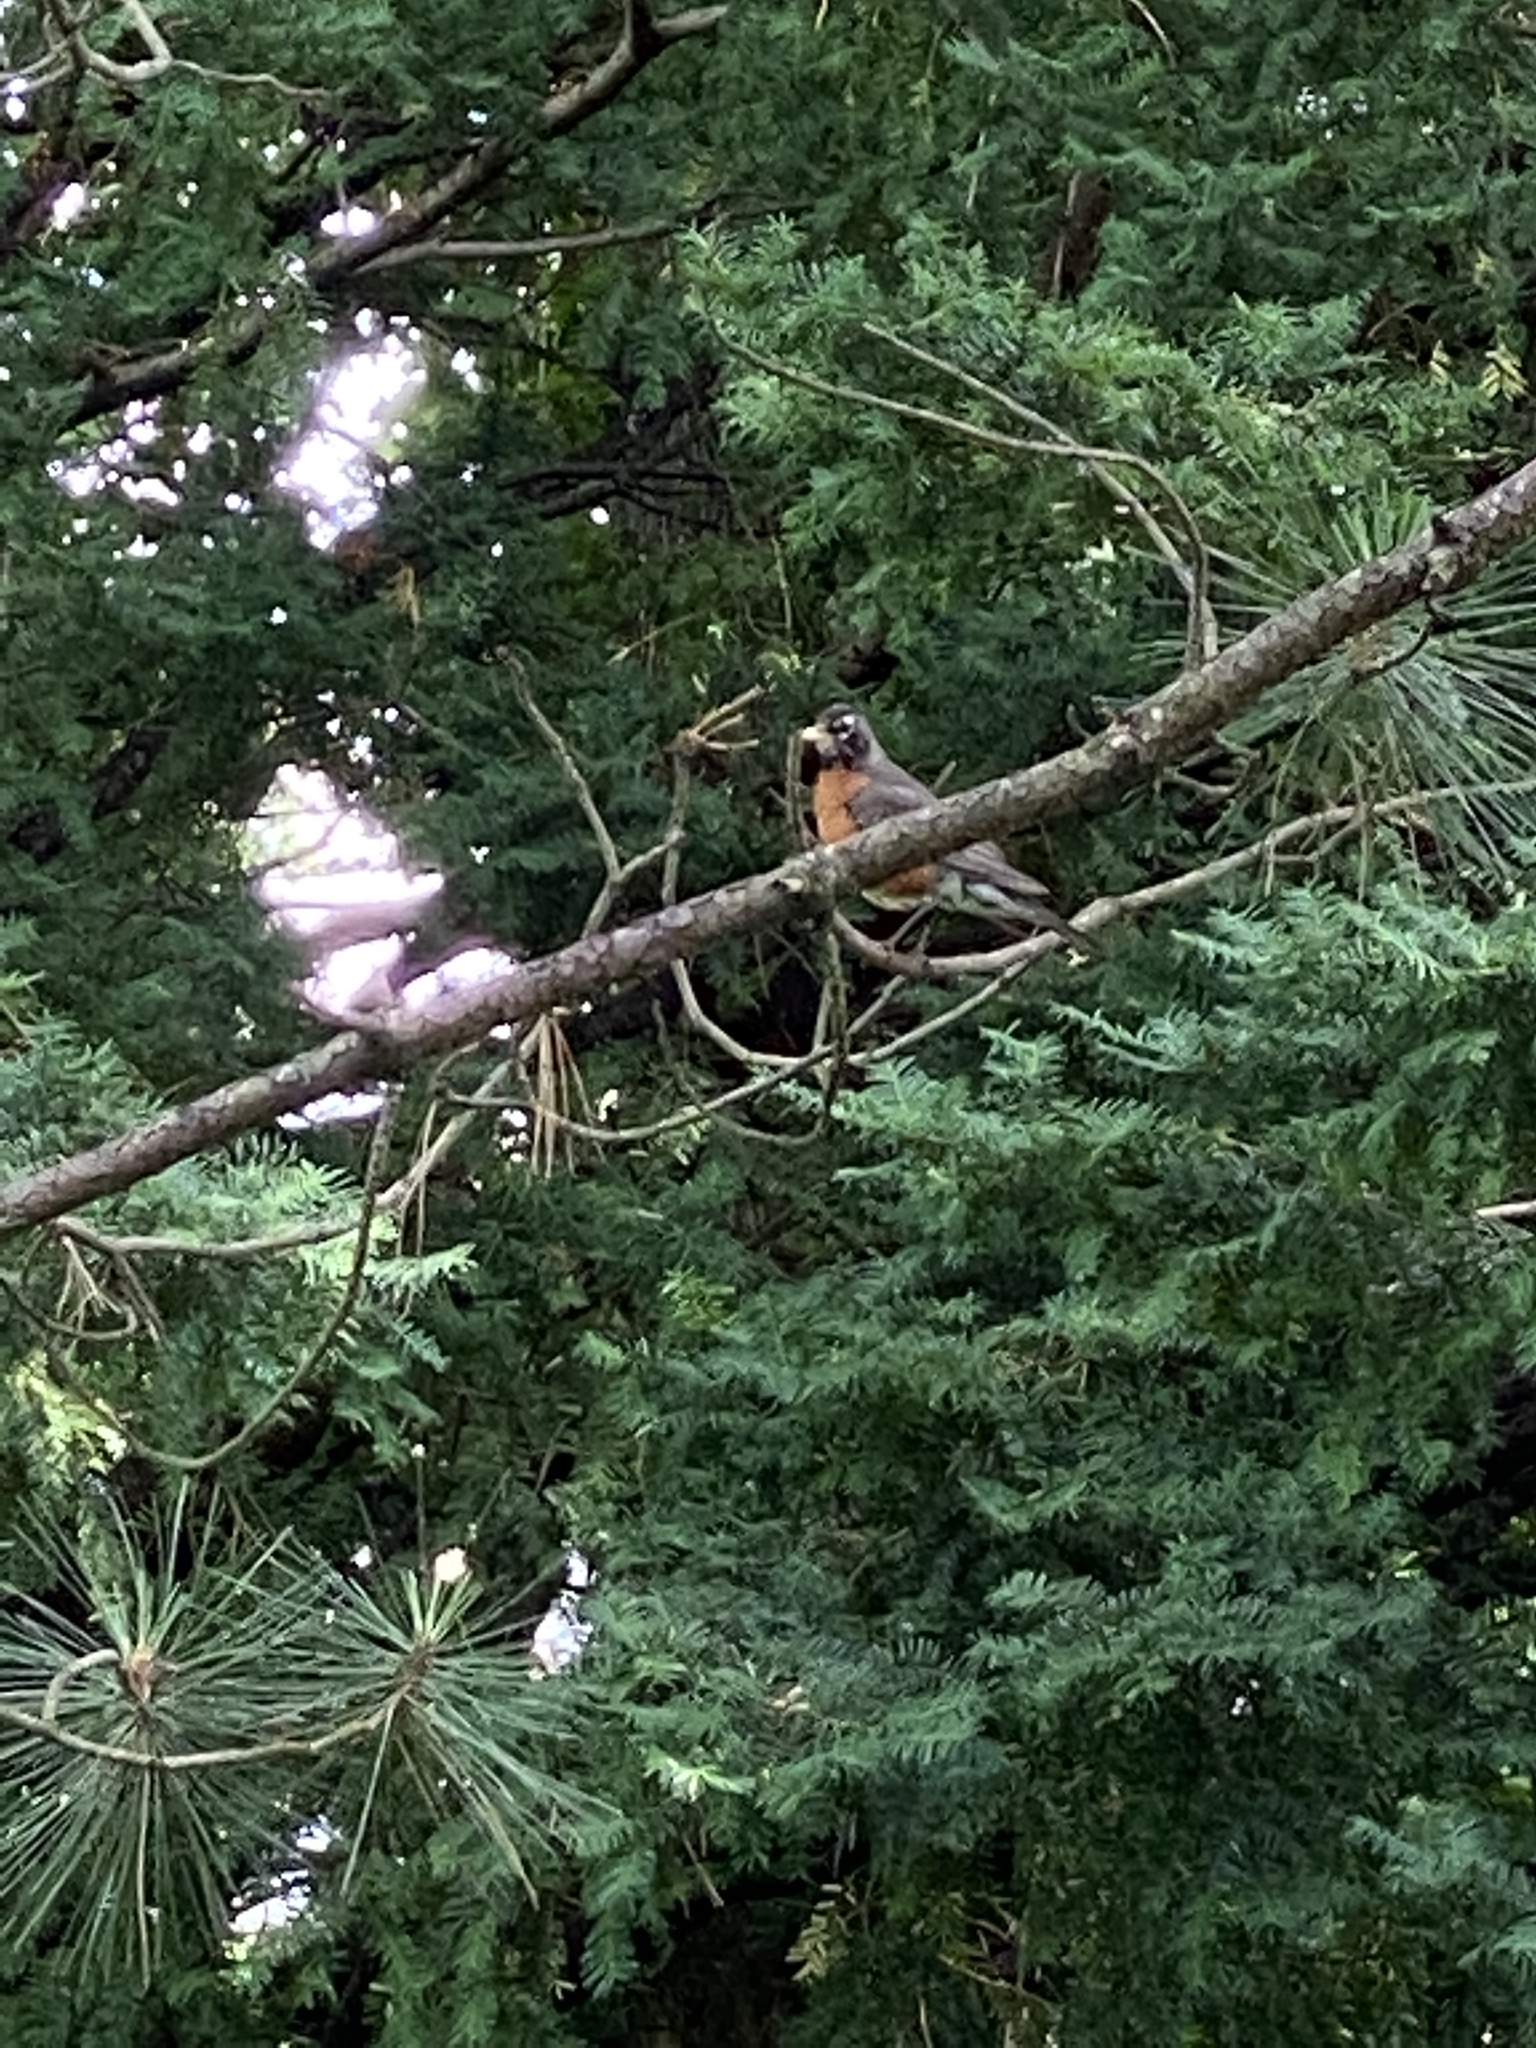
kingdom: Animalia
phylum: Chordata
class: Aves
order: Passeriformes
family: Turdidae
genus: Turdus
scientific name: Turdus migratorius
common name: American robin
